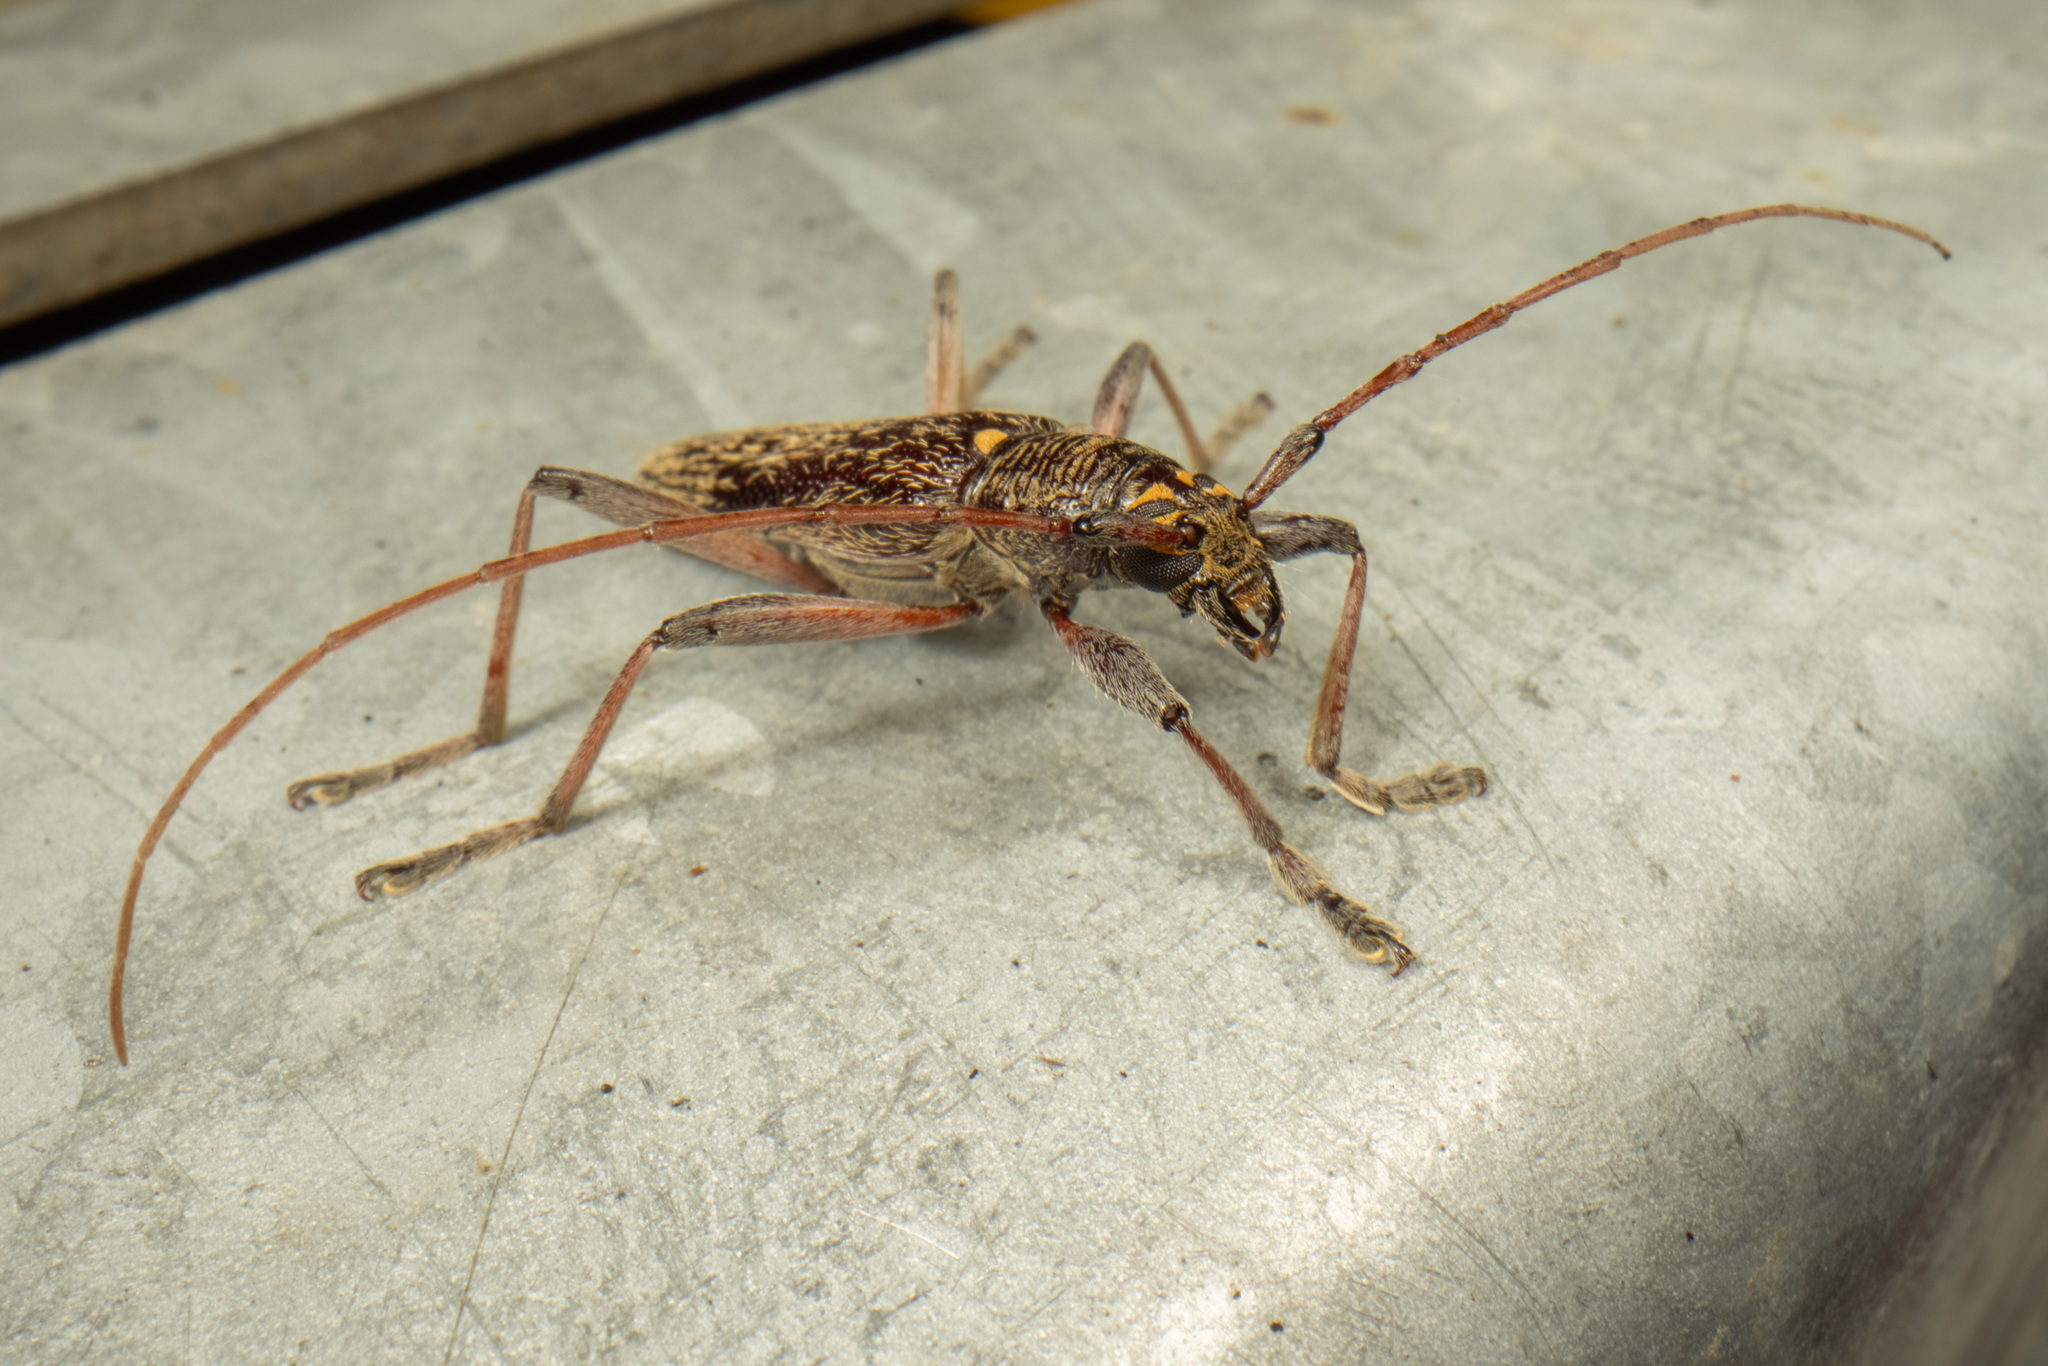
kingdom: Animalia
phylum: Arthropoda
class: Insecta
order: Coleoptera
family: Cerambycidae
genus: Oemona
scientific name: Oemona hirta
